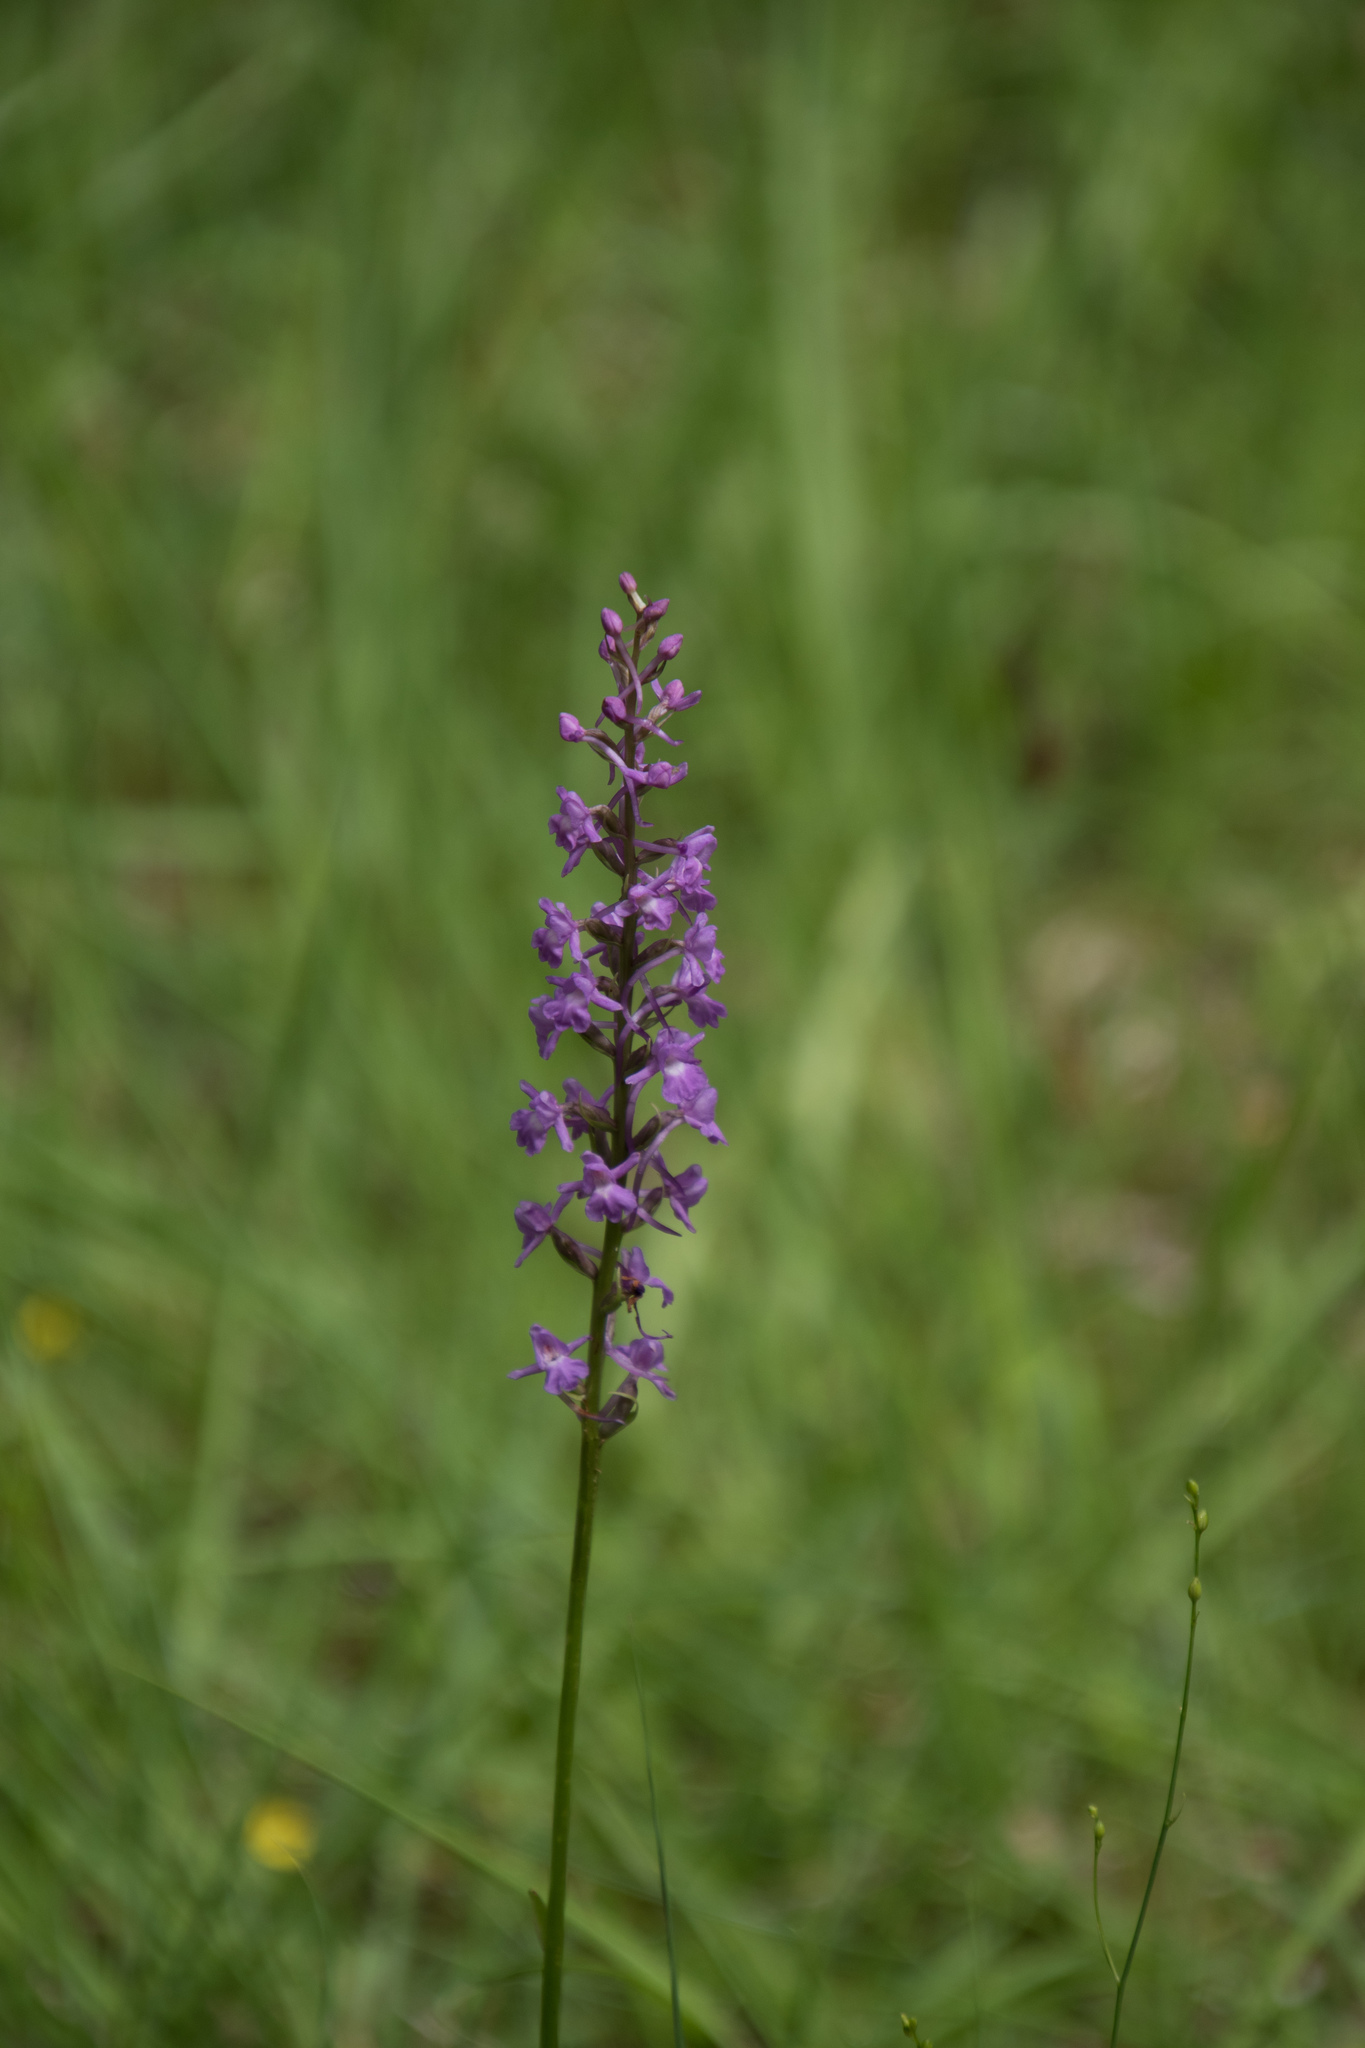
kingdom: Plantae
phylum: Tracheophyta
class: Liliopsida
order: Asparagales
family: Orchidaceae
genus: Gymnadenia
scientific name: Gymnadenia conopsea
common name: Fragrant orchid
